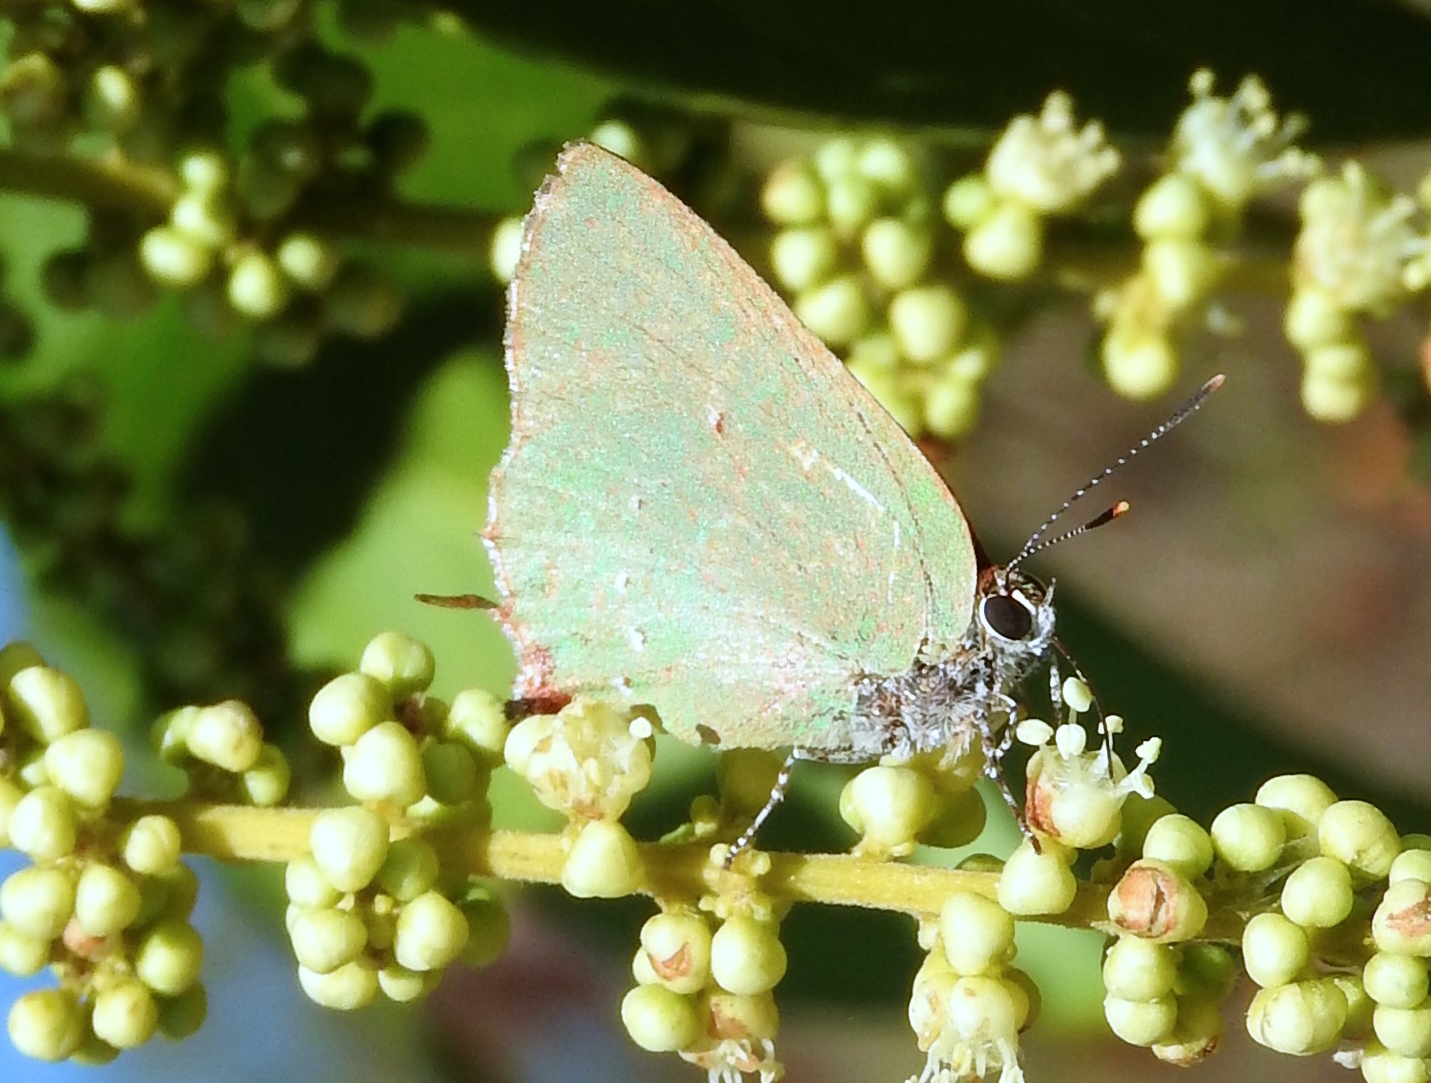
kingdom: Animalia
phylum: Arthropoda
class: Insecta
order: Lepidoptera
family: Lycaenidae
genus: Thecla
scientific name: Thecla herodotus
